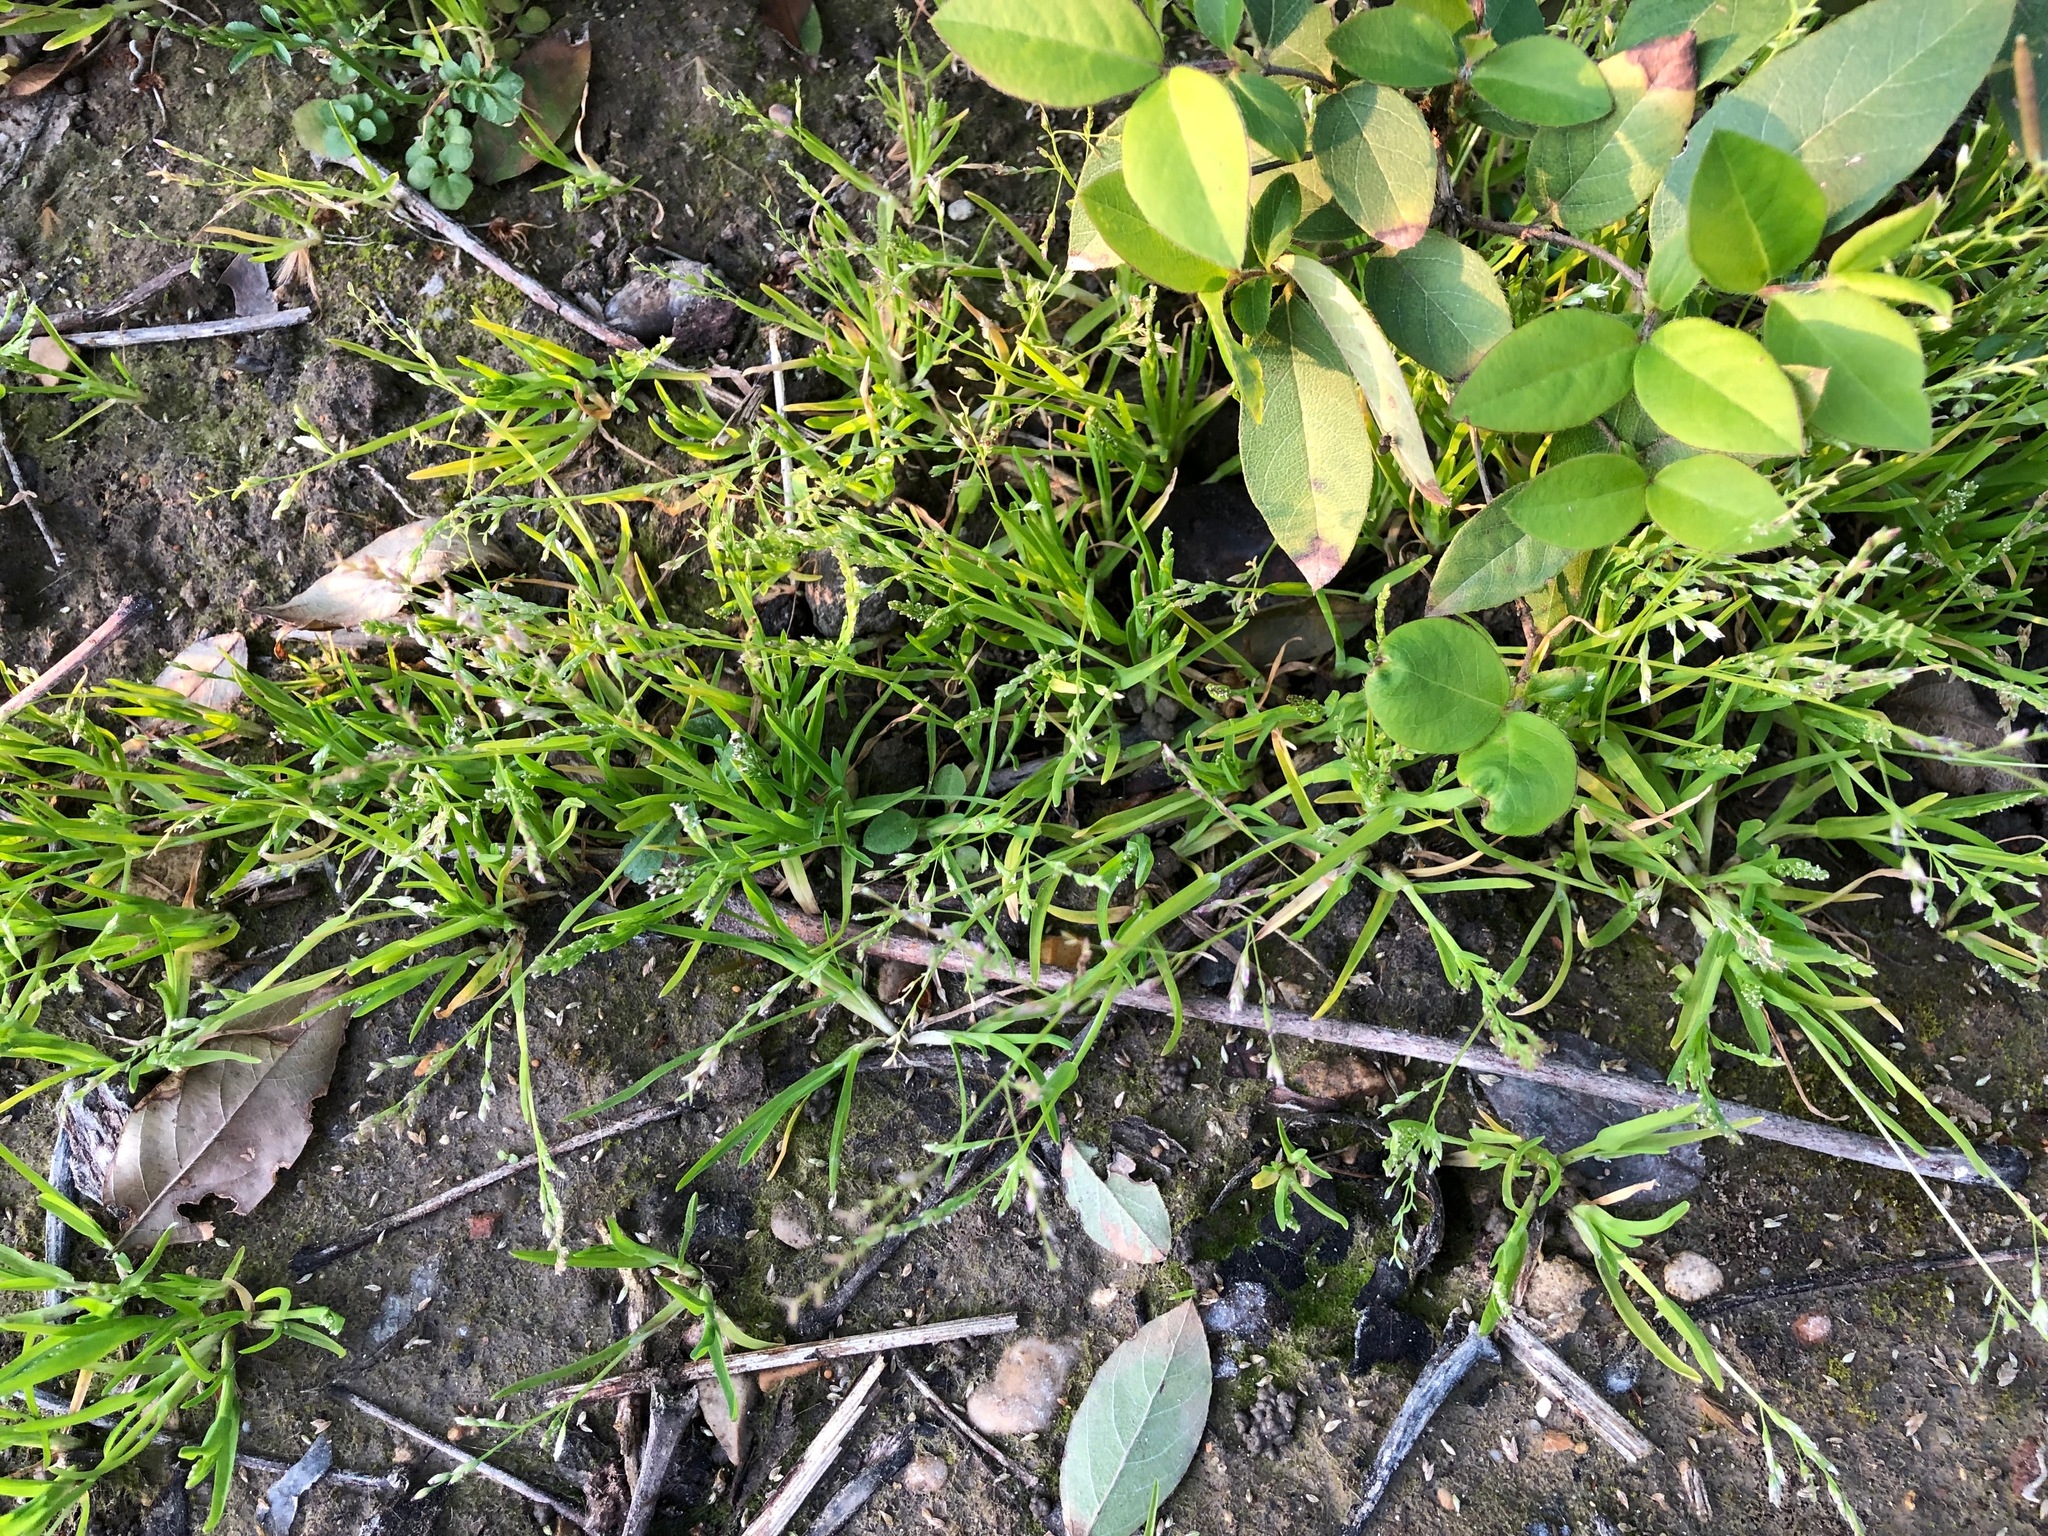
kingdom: Plantae
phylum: Tracheophyta
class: Liliopsida
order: Poales
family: Poaceae
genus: Poa
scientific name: Poa annua
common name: Annual bluegrass
